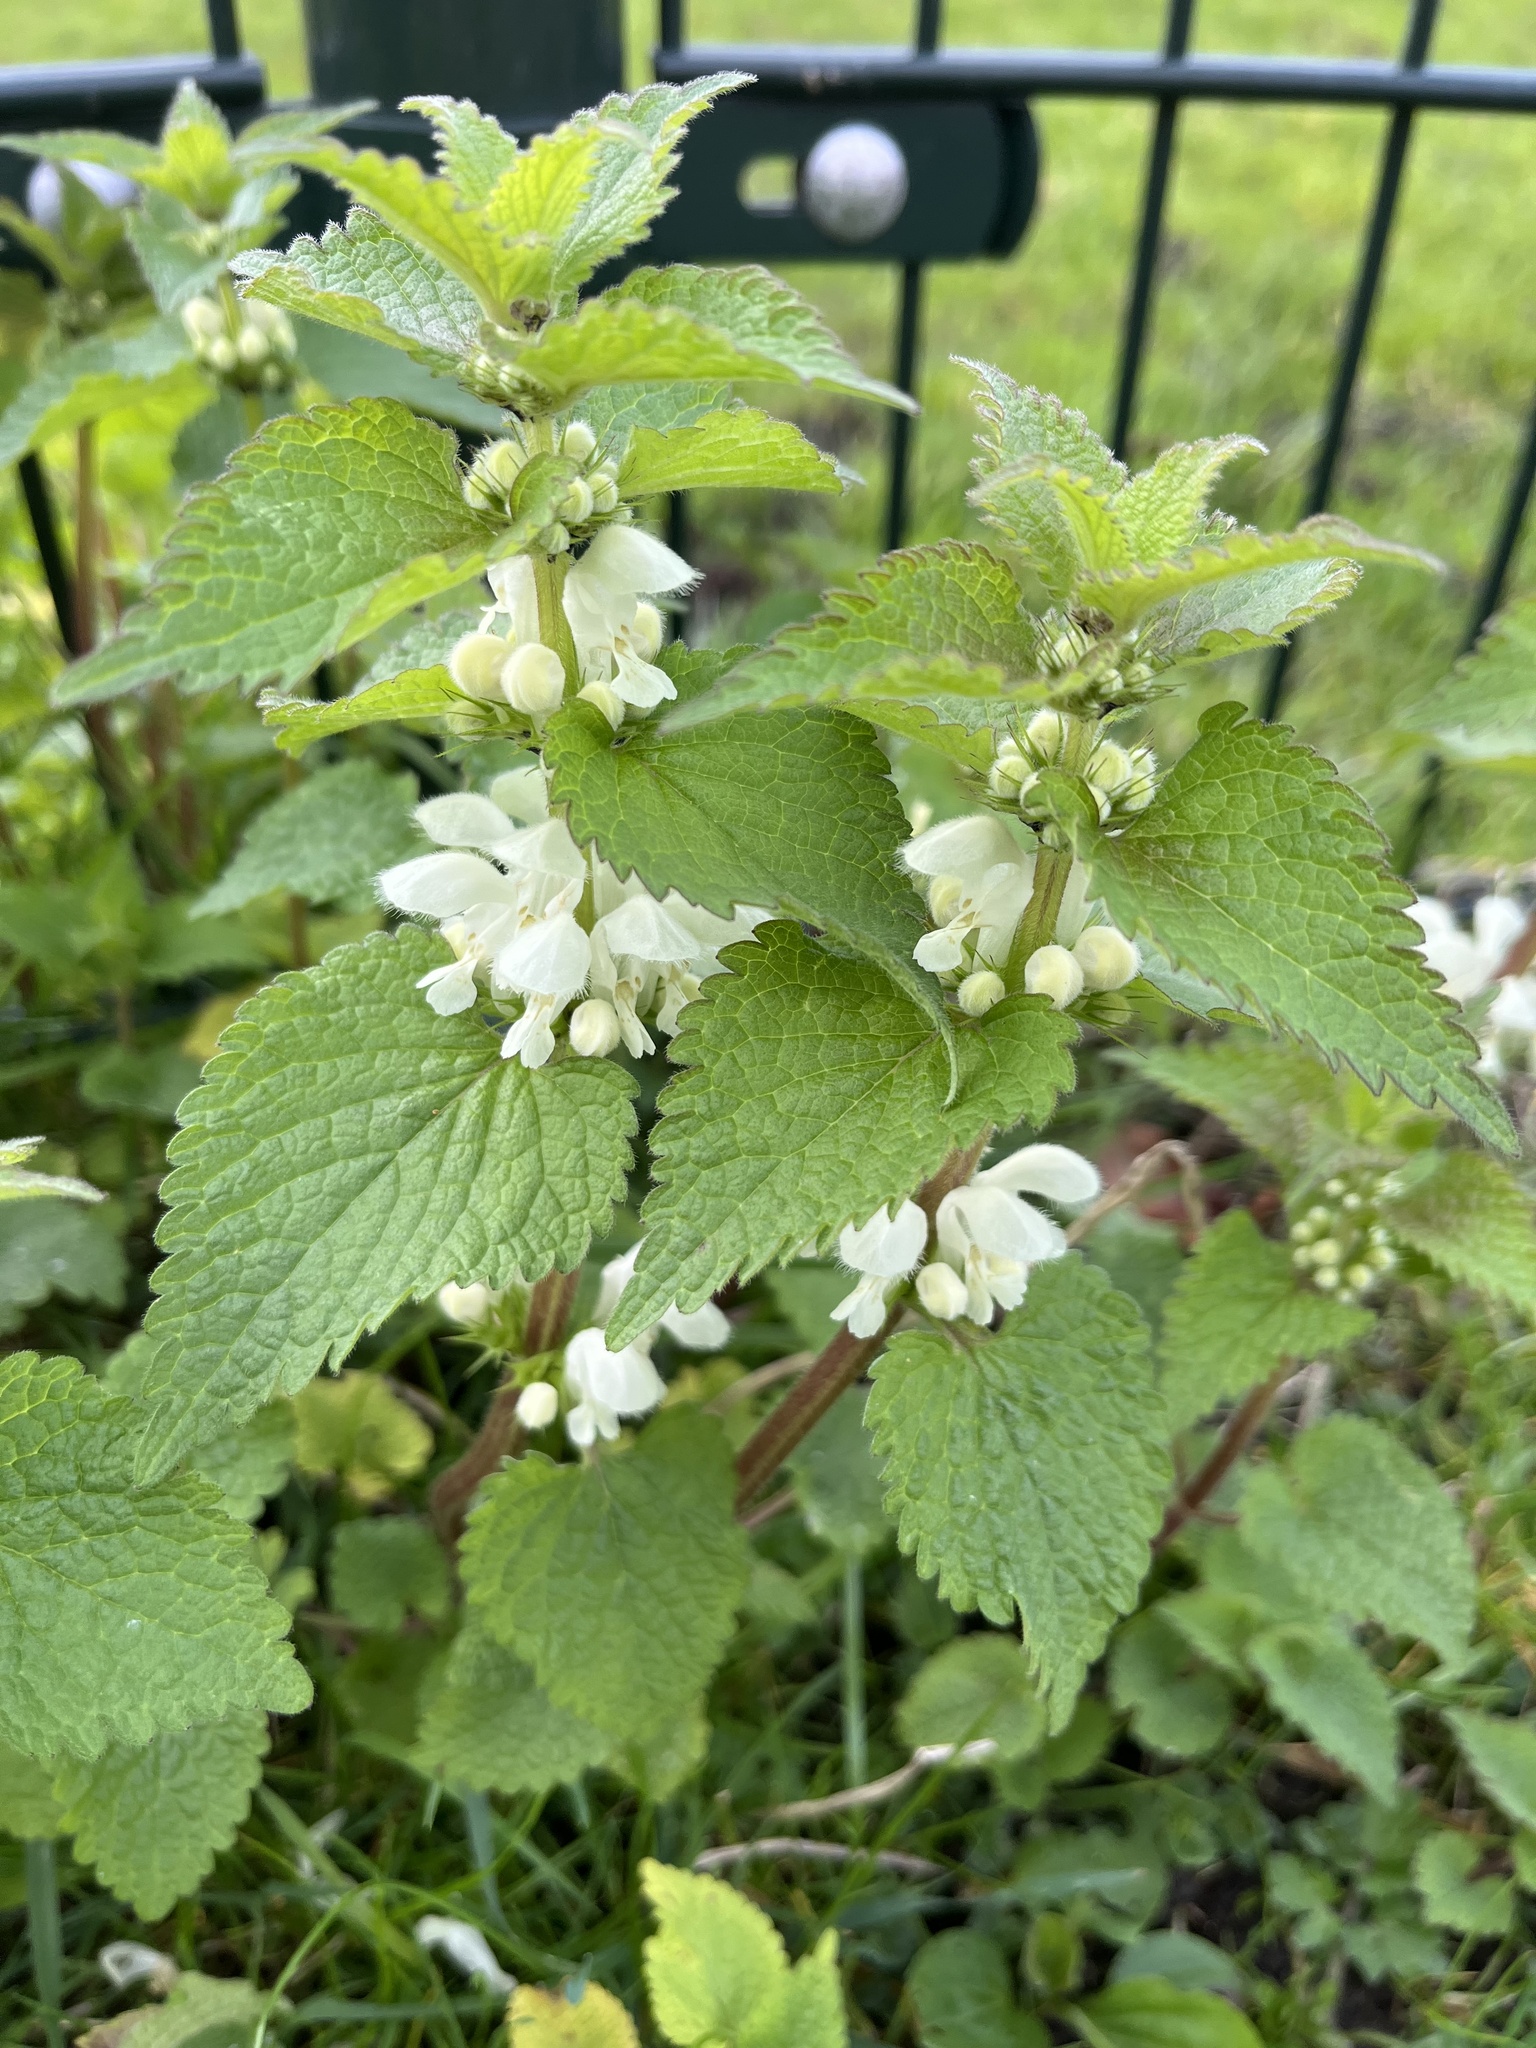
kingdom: Plantae
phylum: Tracheophyta
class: Magnoliopsida
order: Lamiales
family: Lamiaceae
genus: Lamium
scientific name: Lamium album
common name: White dead-nettle
